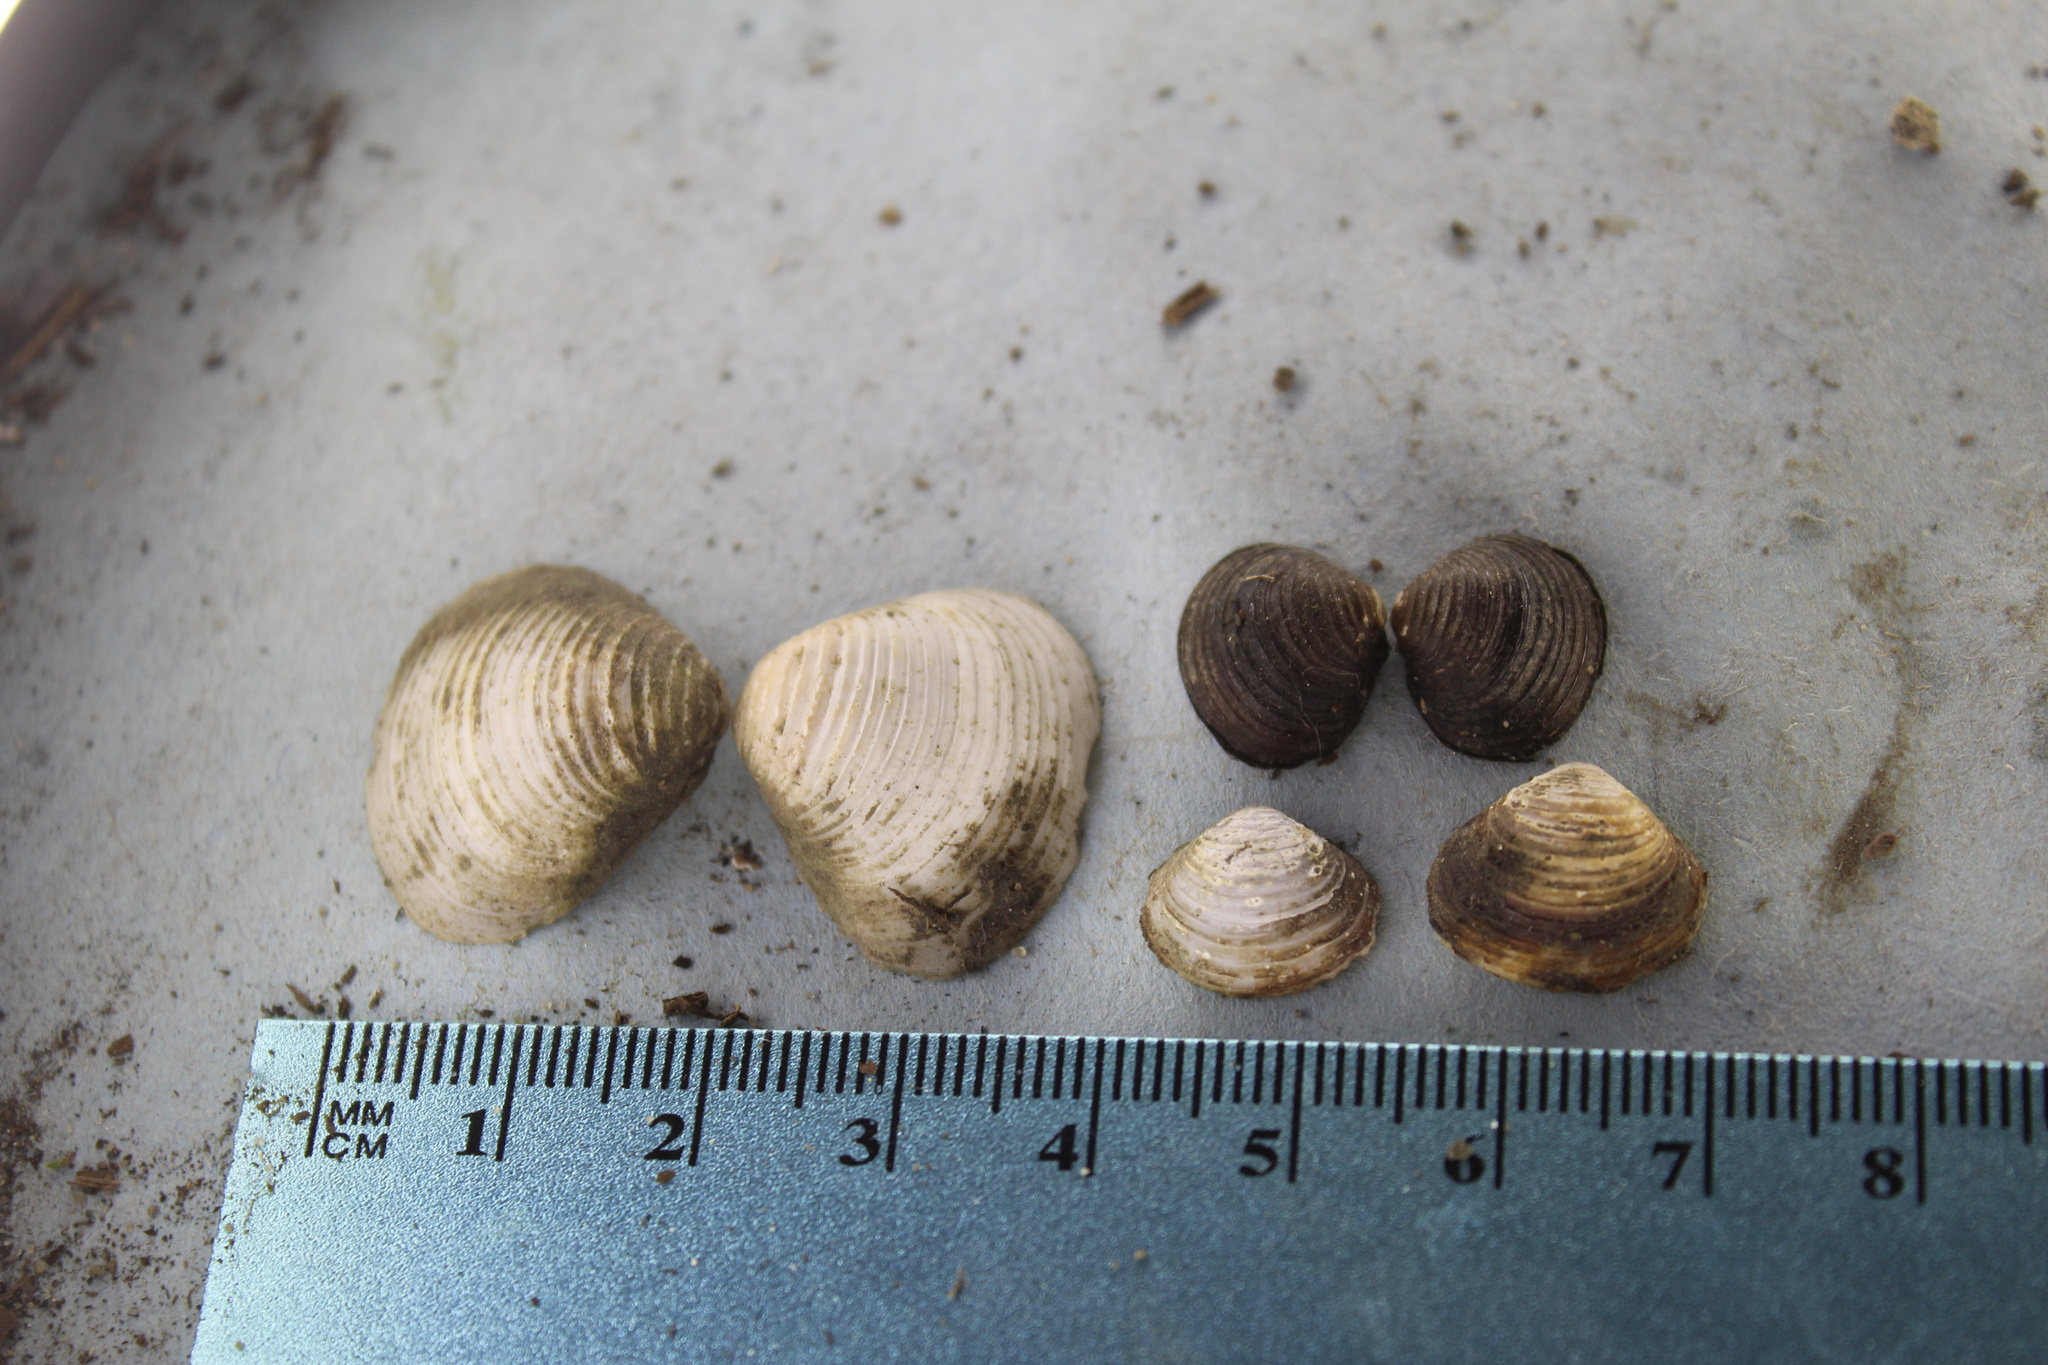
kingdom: Animalia
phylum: Mollusca
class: Bivalvia
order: Venerida
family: Cyrenidae
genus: Corbicula
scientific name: Corbicula fluminea
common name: Asian clam
